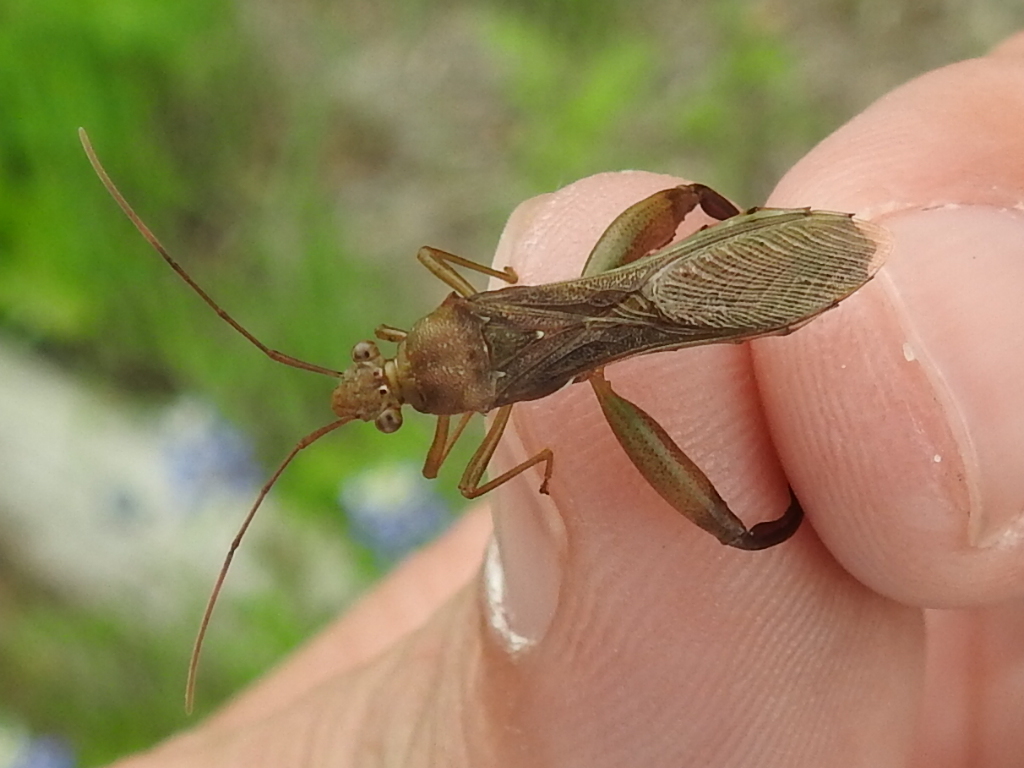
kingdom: Animalia
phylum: Arthropoda
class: Insecta
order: Hemiptera
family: Alydidae
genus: Hyalymenus
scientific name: Hyalymenus tarsatus
